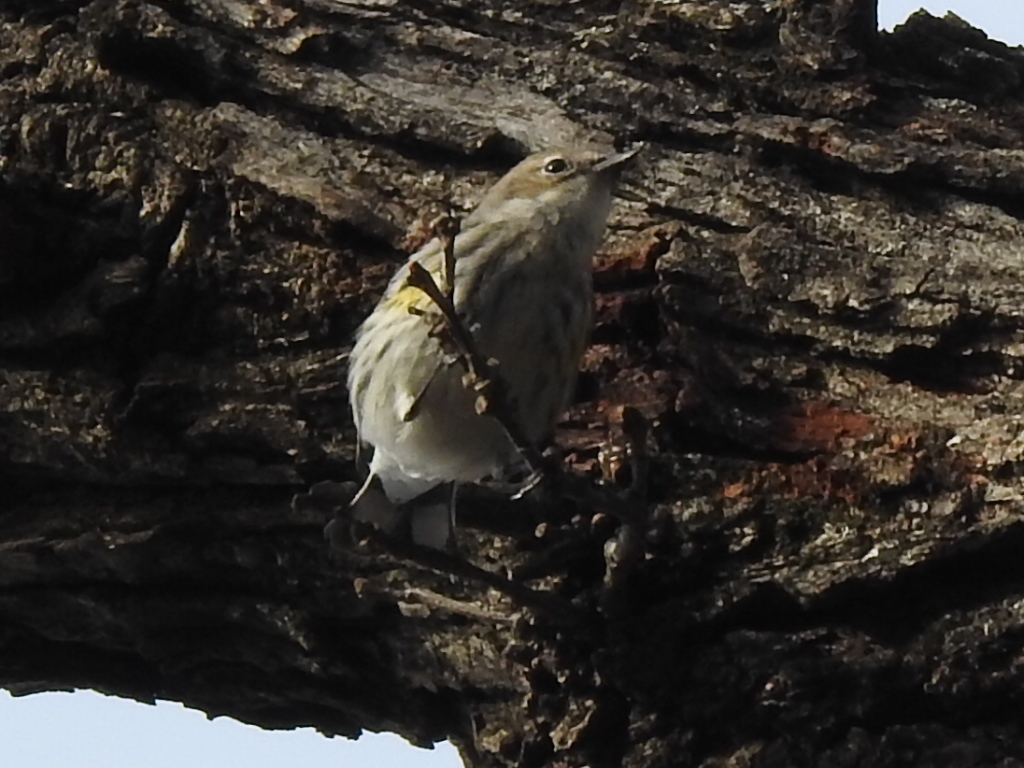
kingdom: Animalia
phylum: Chordata
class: Aves
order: Passeriformes
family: Parulidae
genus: Setophaga
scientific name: Setophaga coronata
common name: Myrtle warbler
